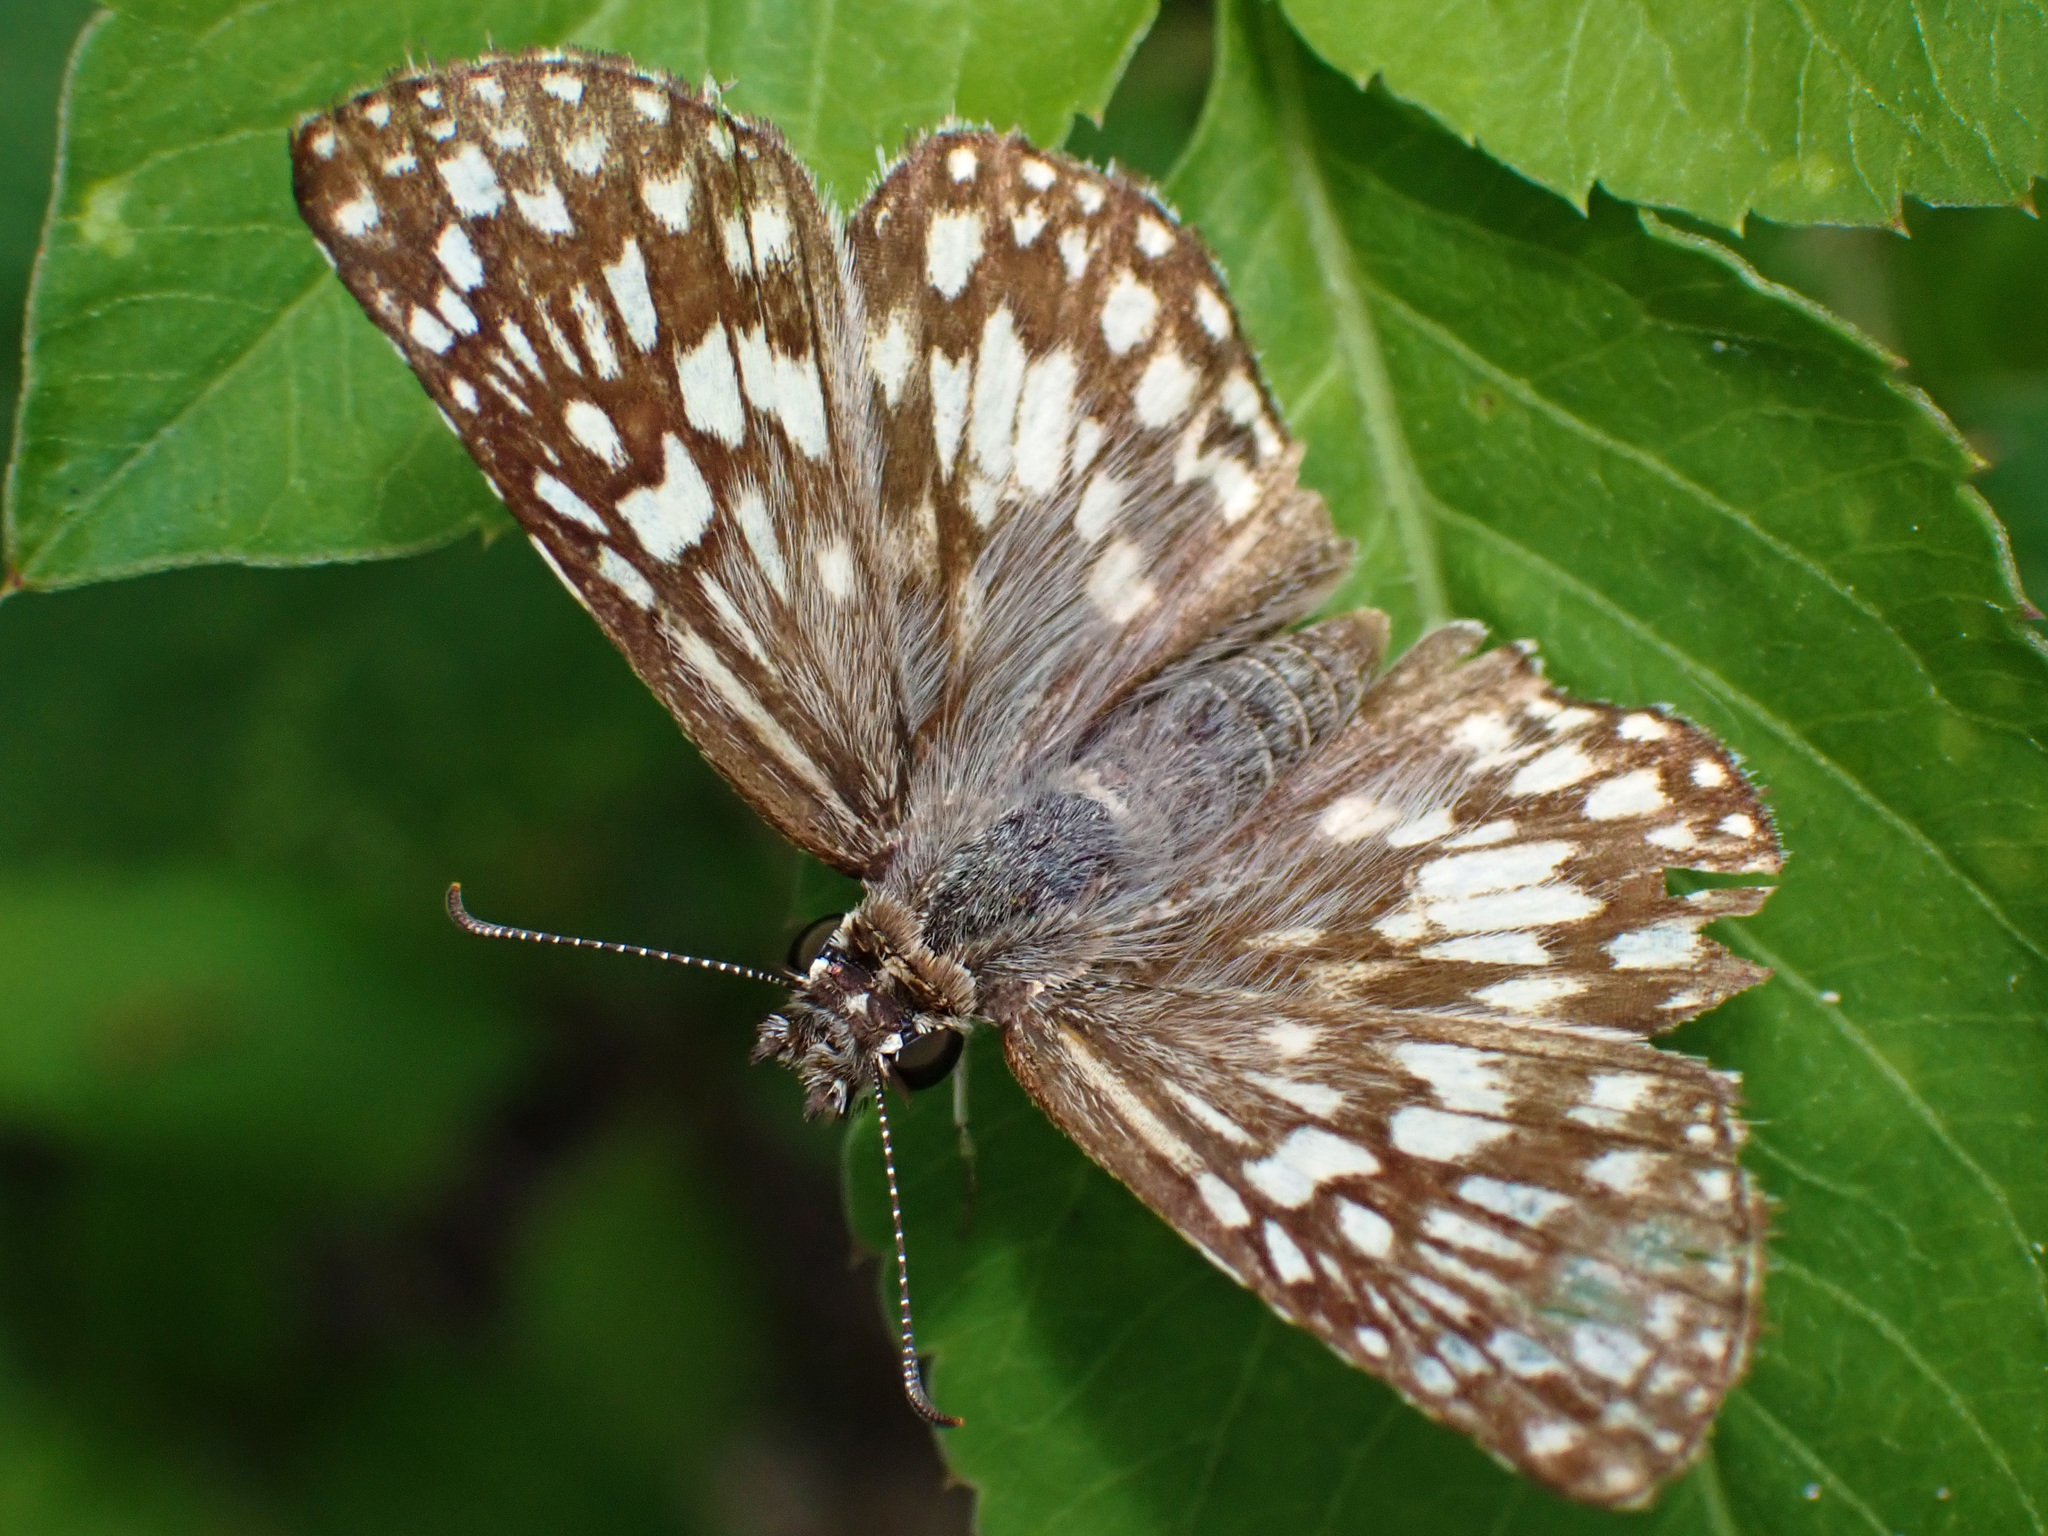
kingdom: Animalia
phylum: Arthropoda
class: Insecta
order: Lepidoptera
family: Hesperiidae
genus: Pyrgus
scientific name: Pyrgus oileus
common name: Tropical checkered-skipper
